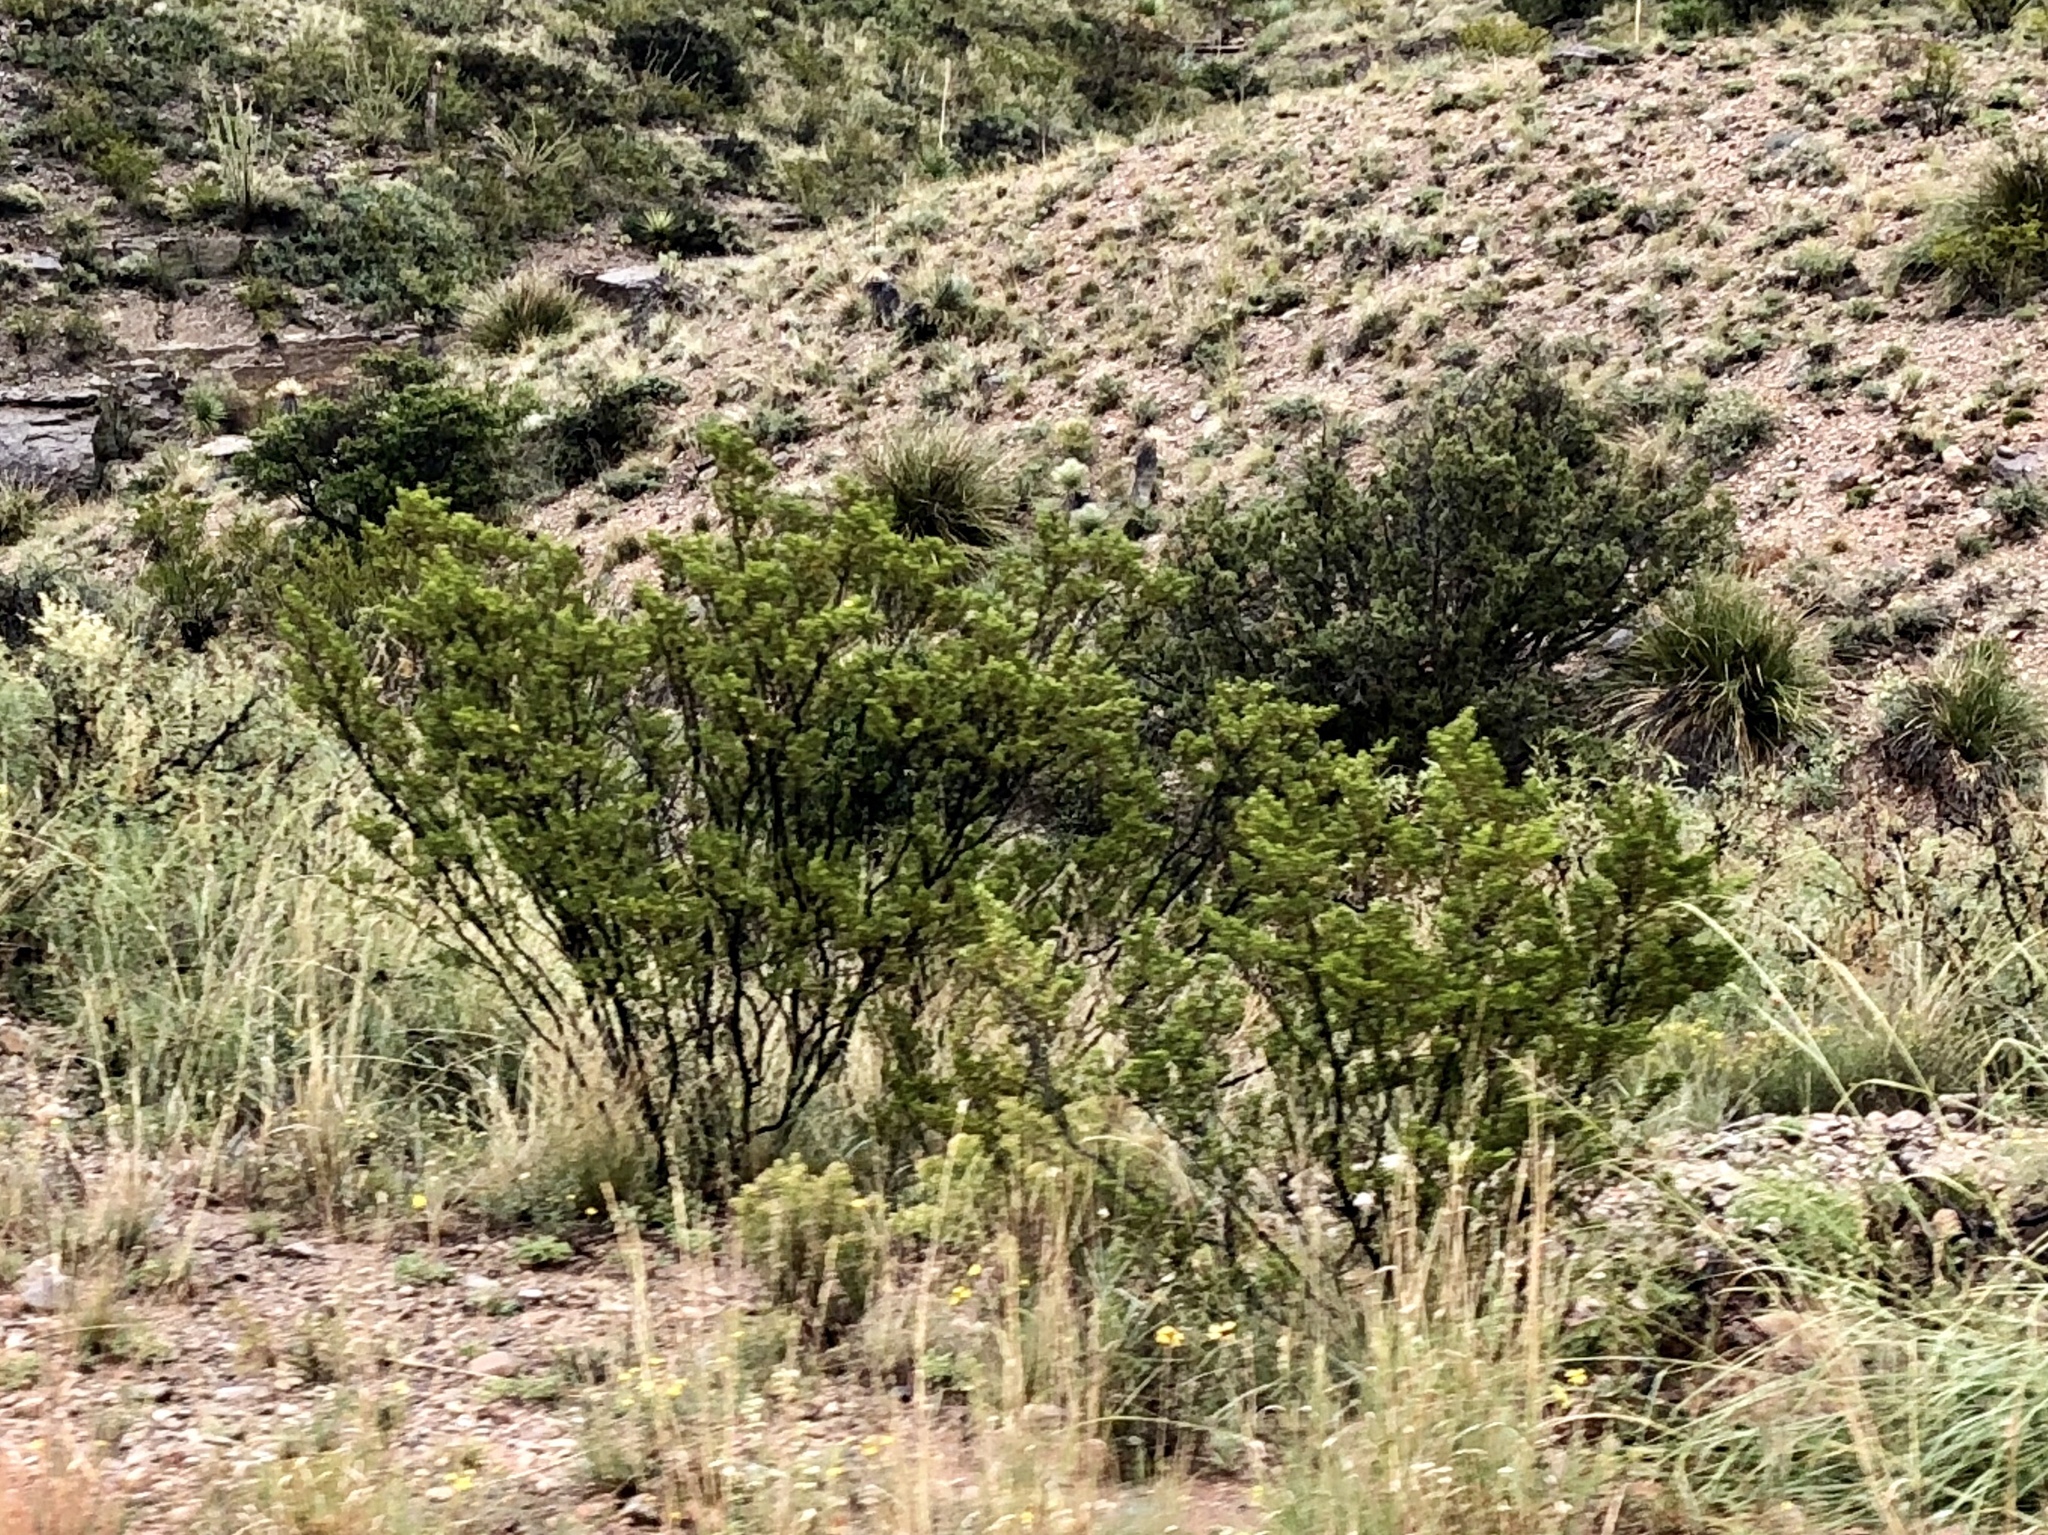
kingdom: Plantae
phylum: Tracheophyta
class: Magnoliopsida
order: Zygophyllales
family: Zygophyllaceae
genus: Larrea
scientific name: Larrea tridentata
